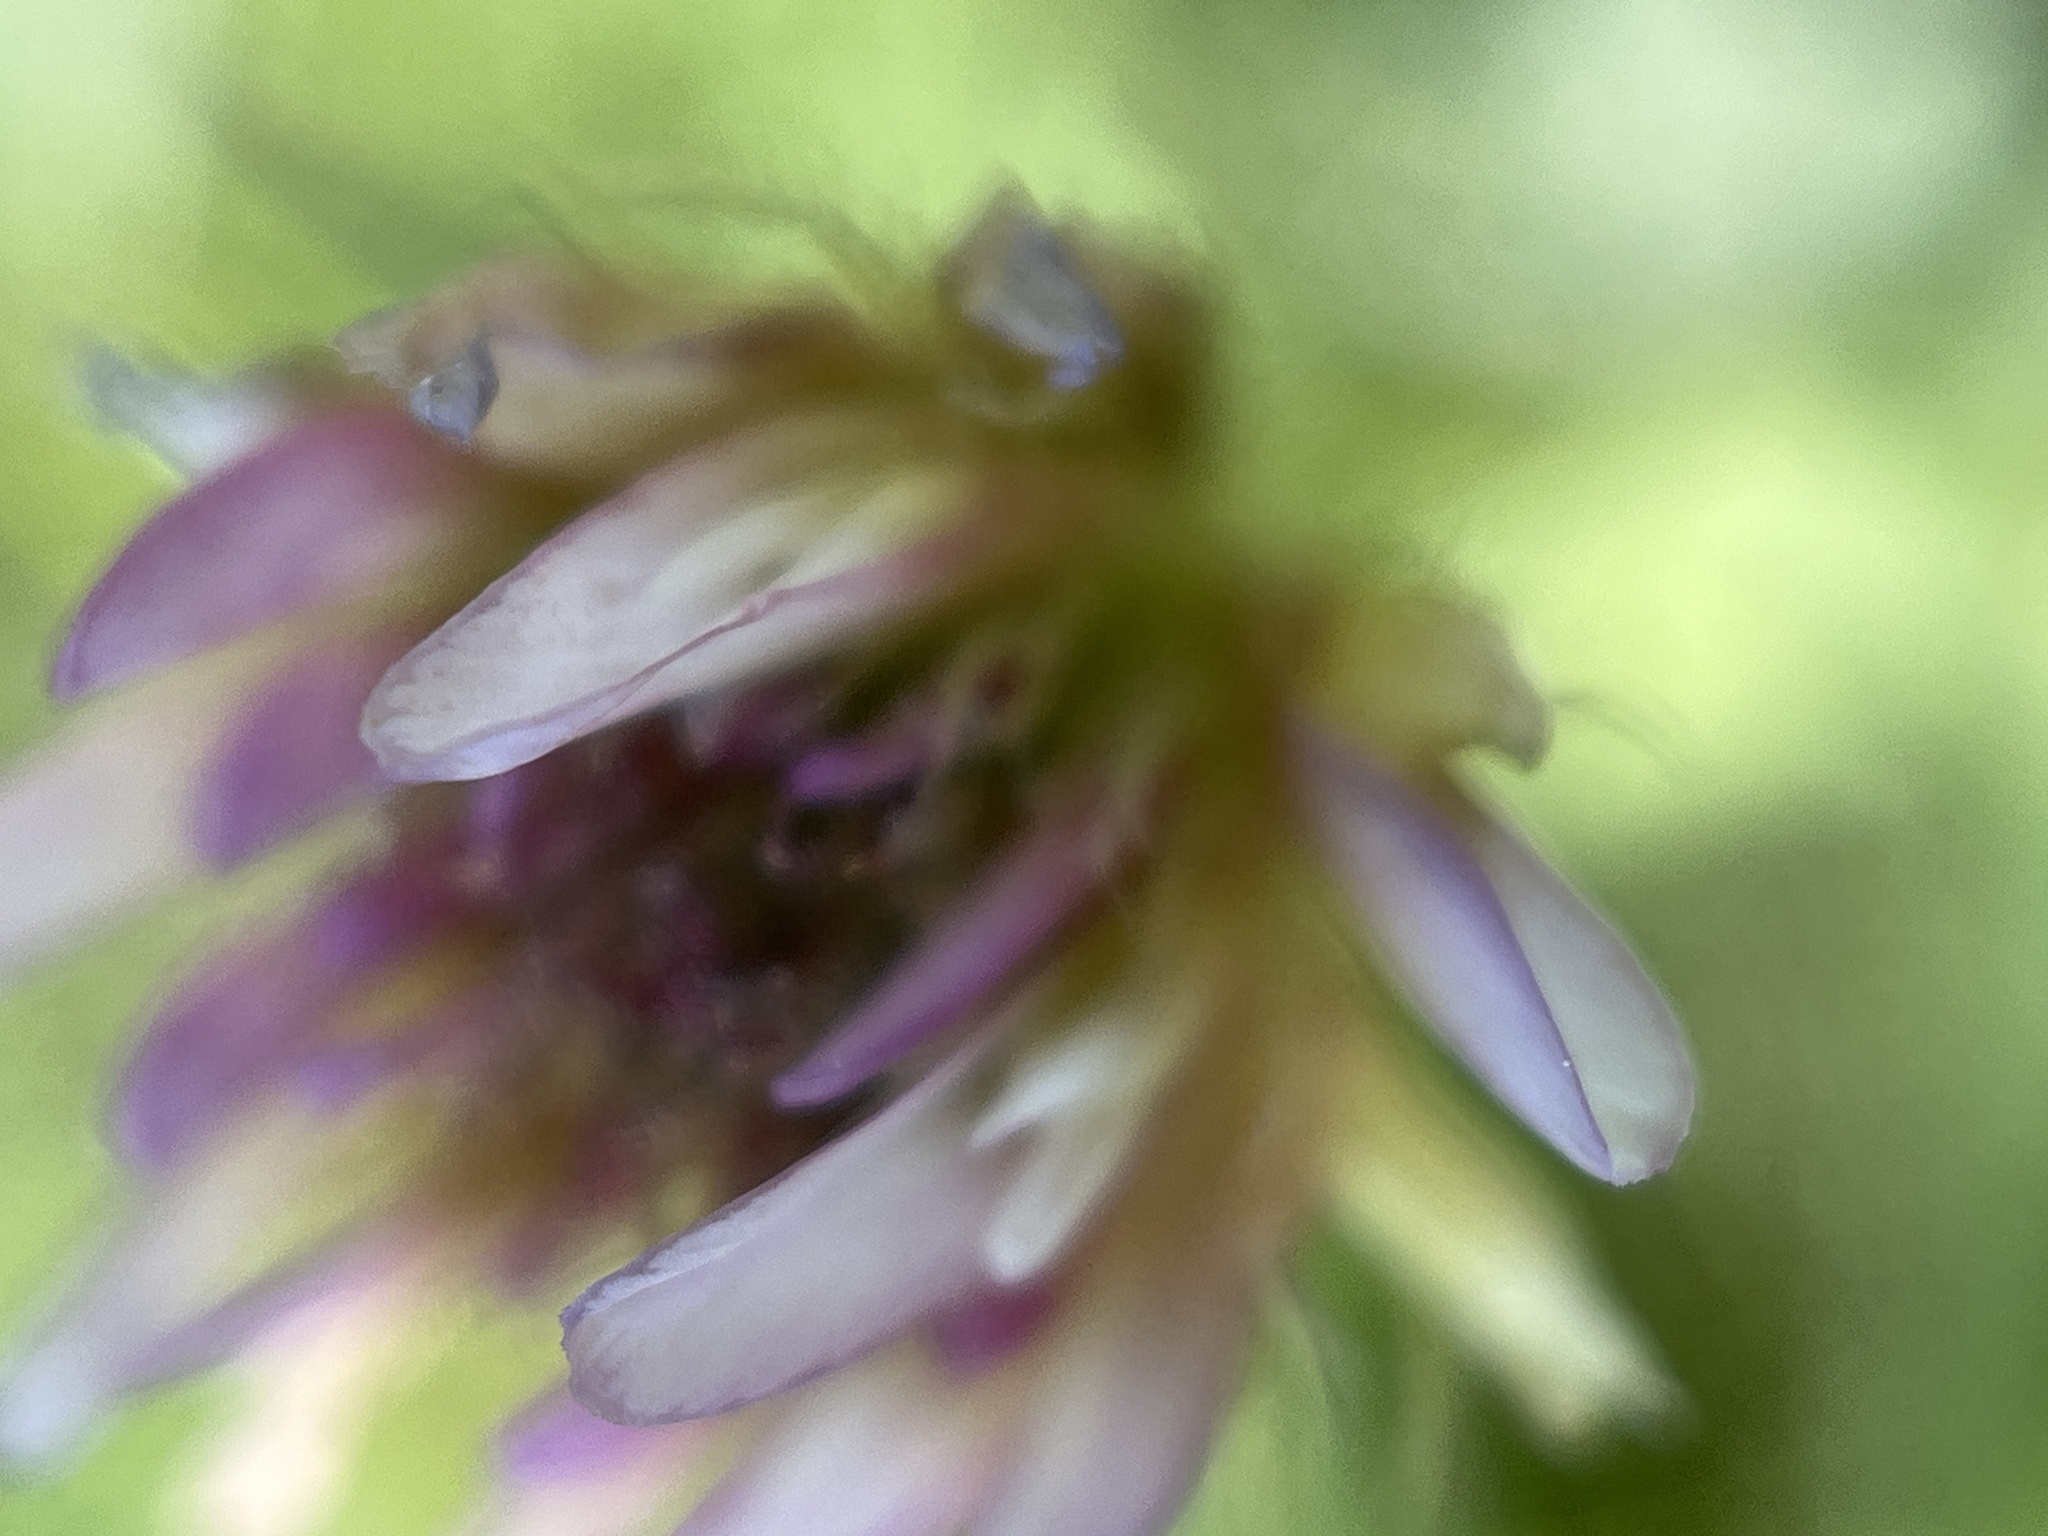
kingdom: Plantae
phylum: Tracheophyta
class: Magnoliopsida
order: Fabales
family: Fabaceae
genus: Trifolium
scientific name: Trifolium longipes
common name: Long-stalk clover
